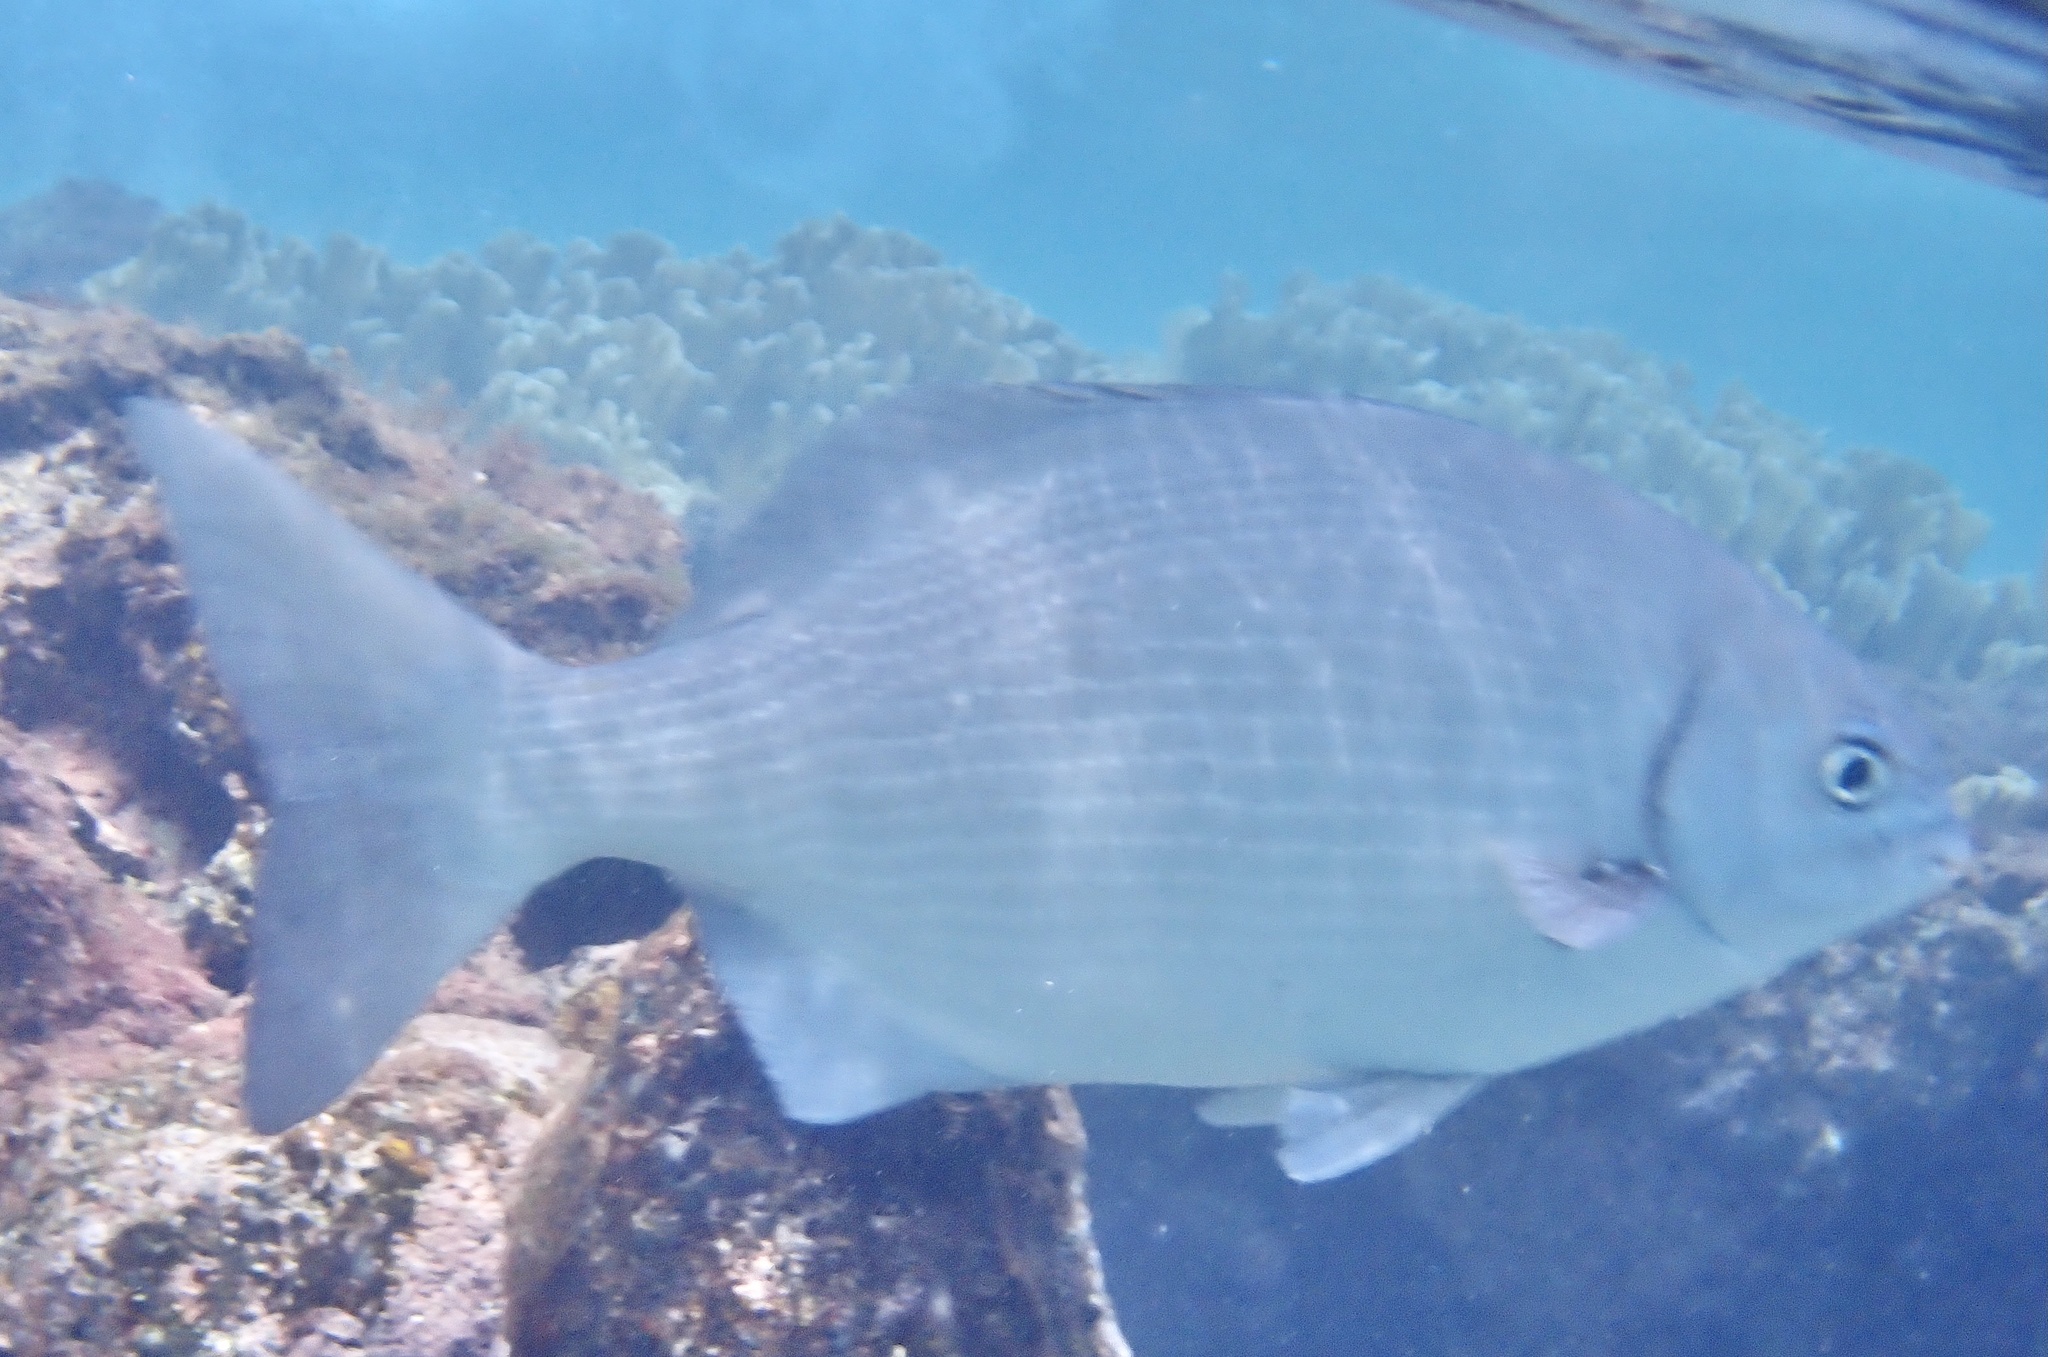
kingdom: Animalia
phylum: Chordata
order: Perciformes
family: Kyphosidae
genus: Kyphosus
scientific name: Kyphosus sectatrix
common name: Bermuda chub
